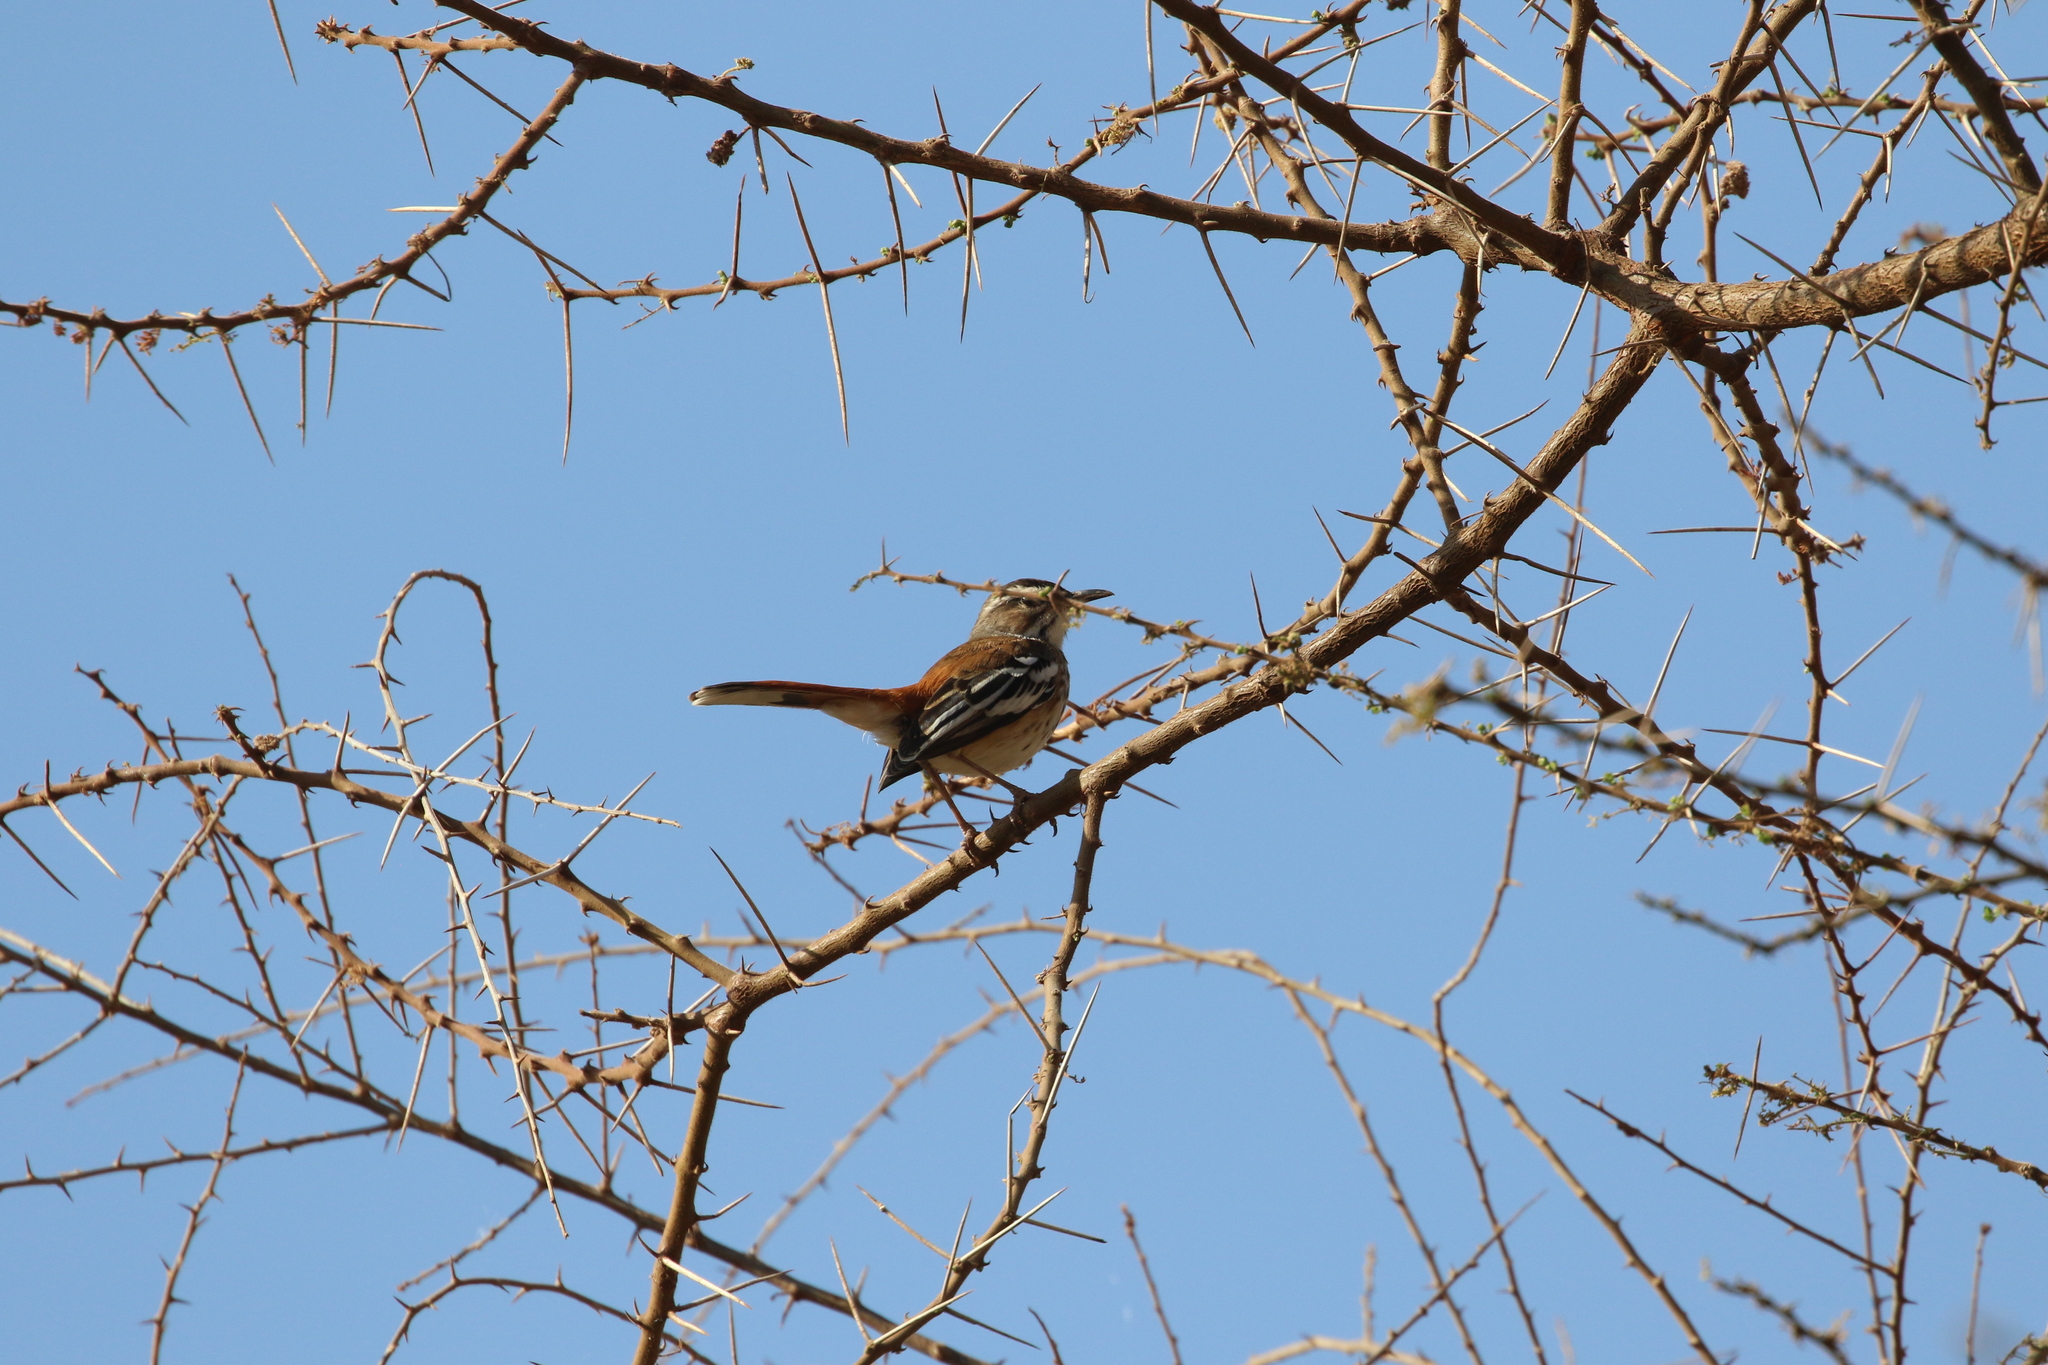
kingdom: Animalia
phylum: Chordata
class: Aves
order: Passeriformes
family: Muscicapidae
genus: Erythropygia
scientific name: Erythropygia leucophrys
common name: White-browed scrub robin
